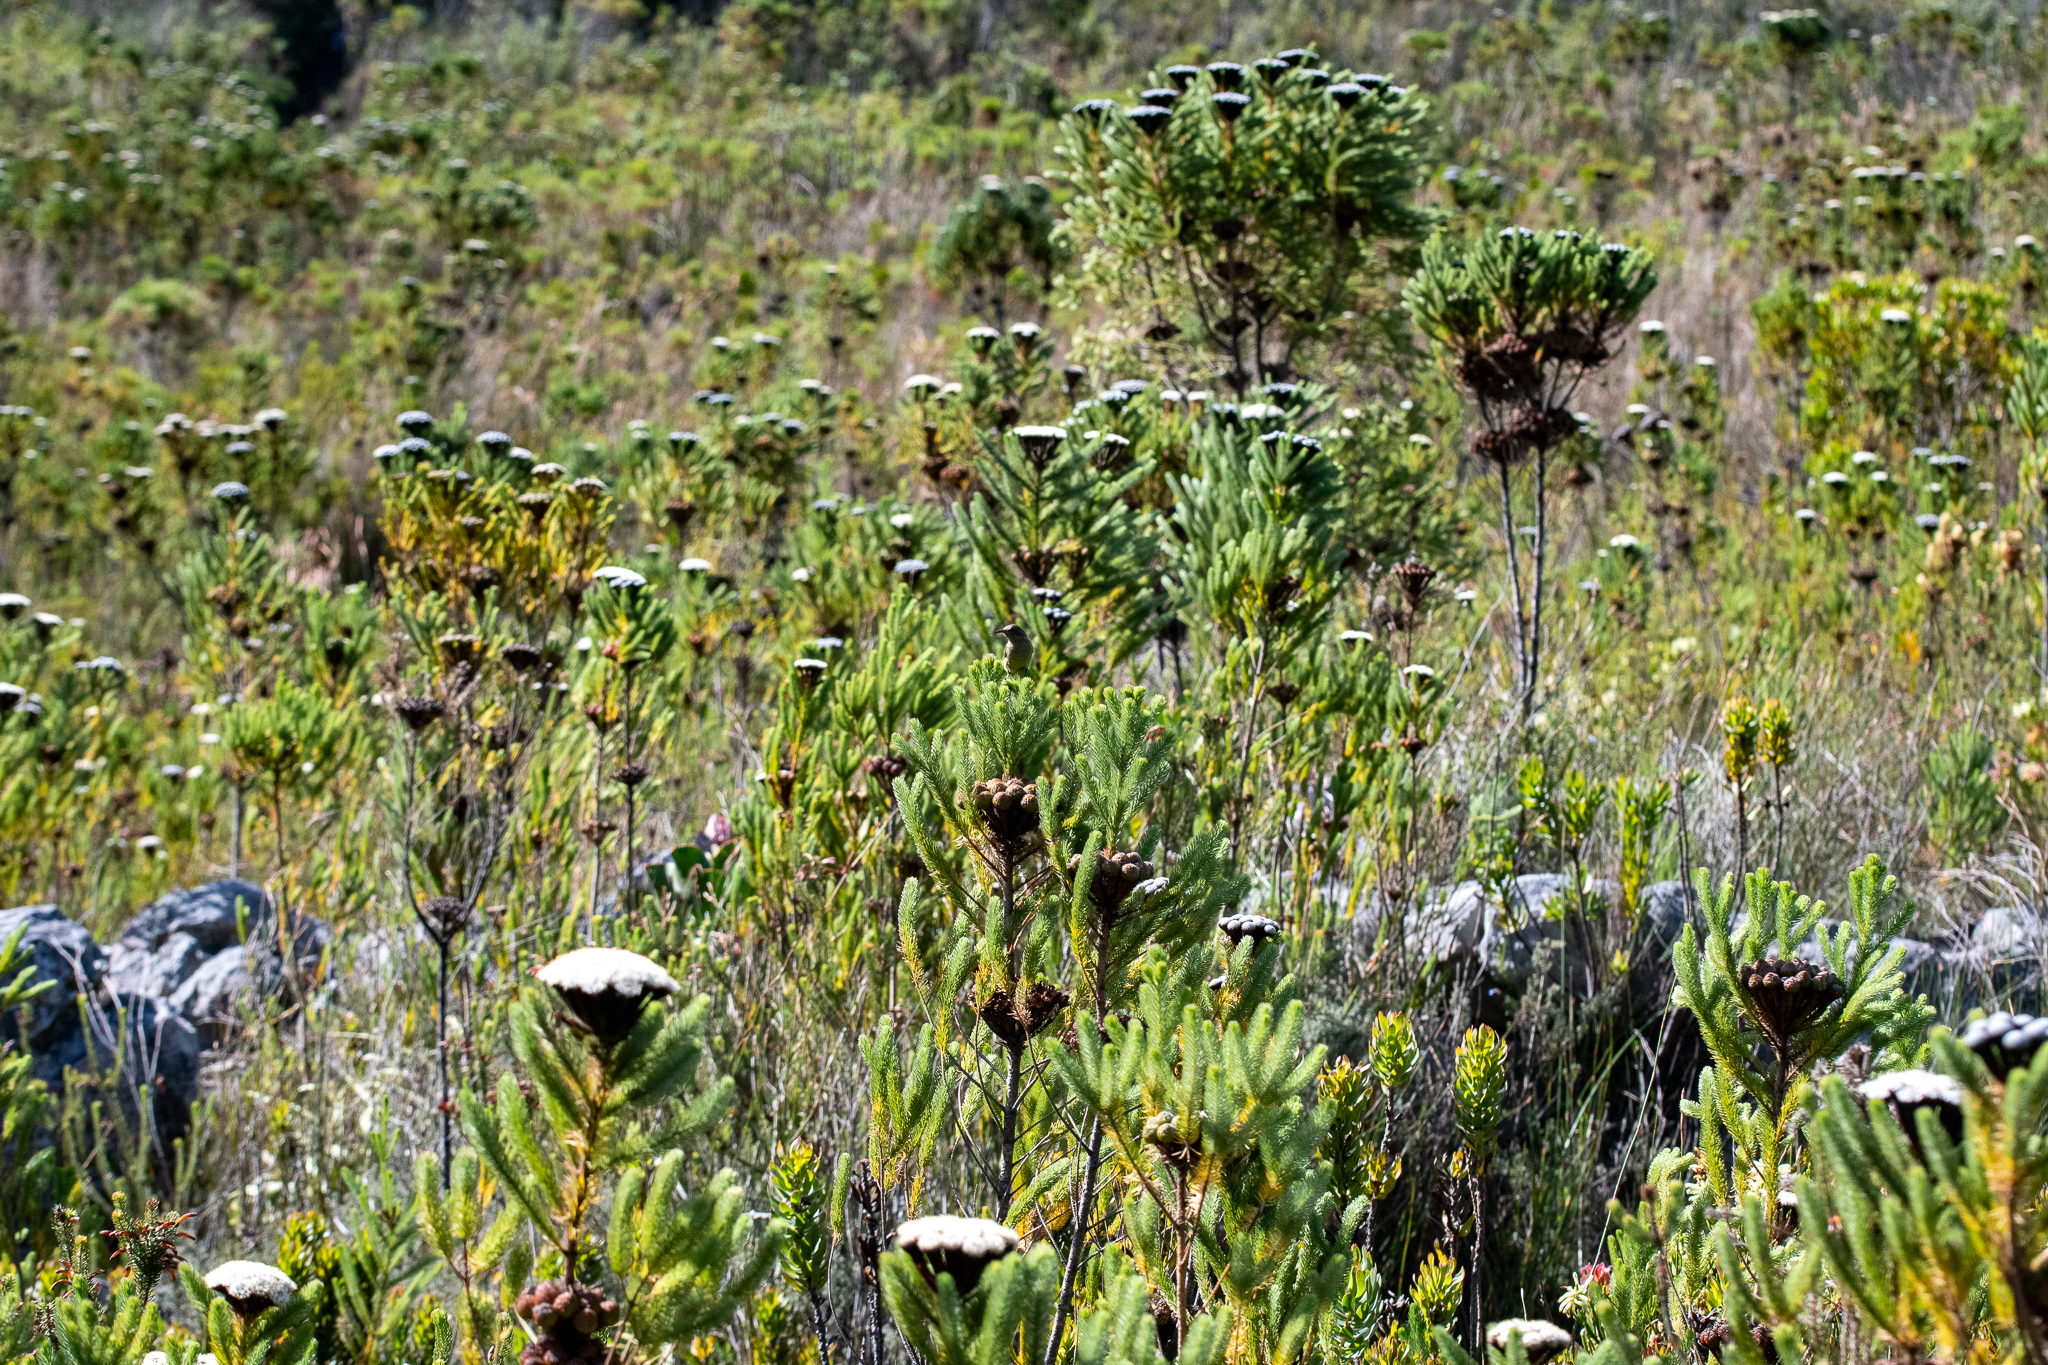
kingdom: Plantae
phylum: Tracheophyta
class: Magnoliopsida
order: Bruniales
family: Bruniaceae
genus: Berzelia
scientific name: Berzelia albiflora
